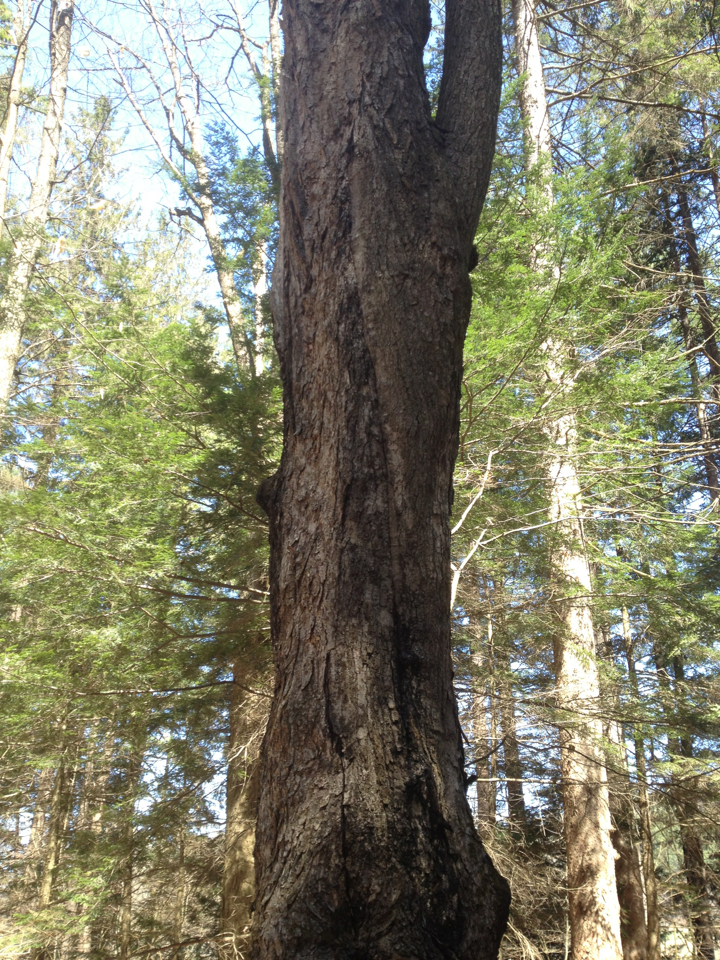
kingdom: Plantae
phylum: Tracheophyta
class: Magnoliopsida
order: Sapindales
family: Sapindaceae
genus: Acer
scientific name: Acer saccharum
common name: Sugar maple
